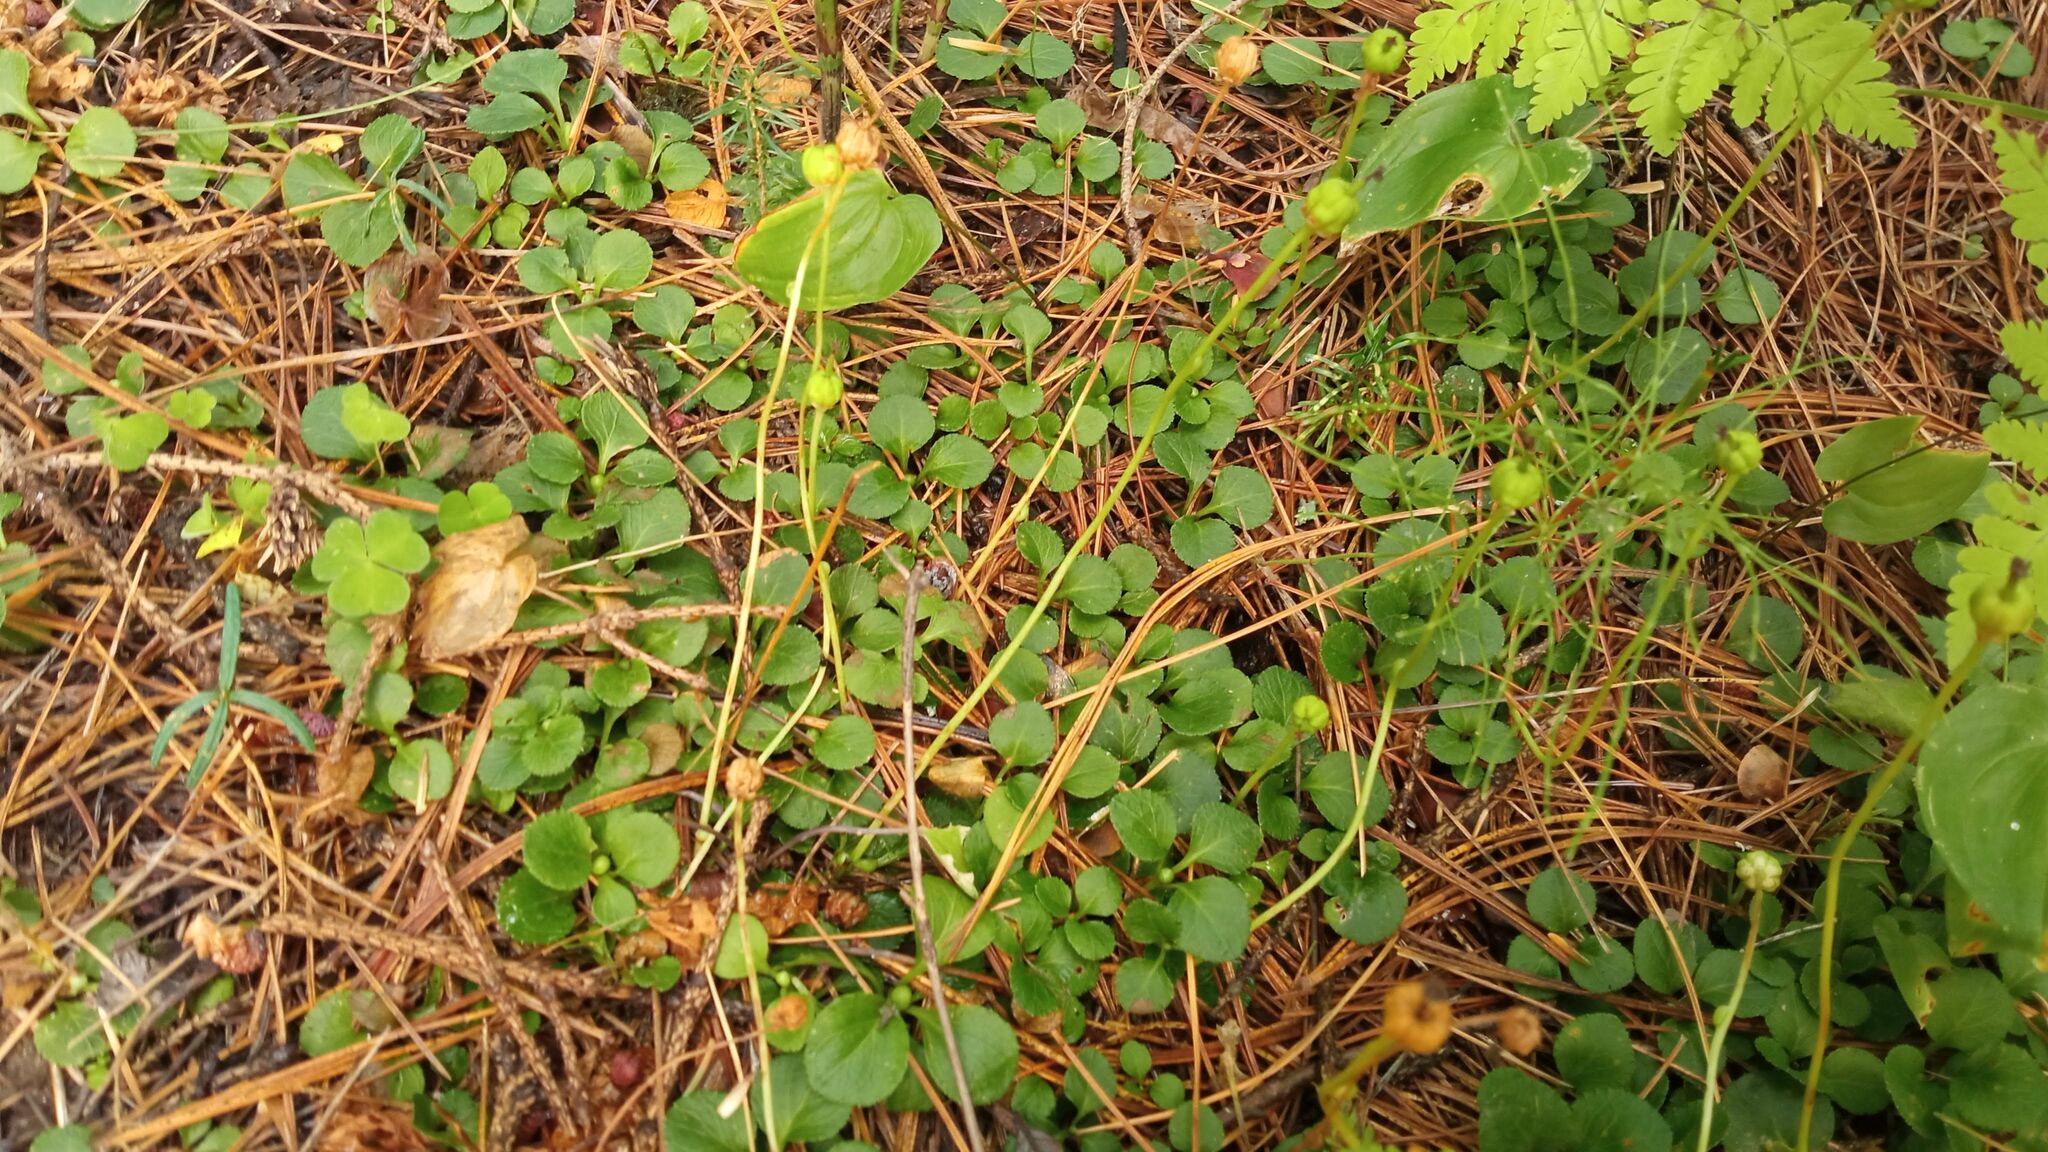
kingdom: Plantae
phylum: Tracheophyta
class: Magnoliopsida
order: Ericales
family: Ericaceae
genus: Moneses
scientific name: Moneses uniflora
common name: One-flowered wintergreen
